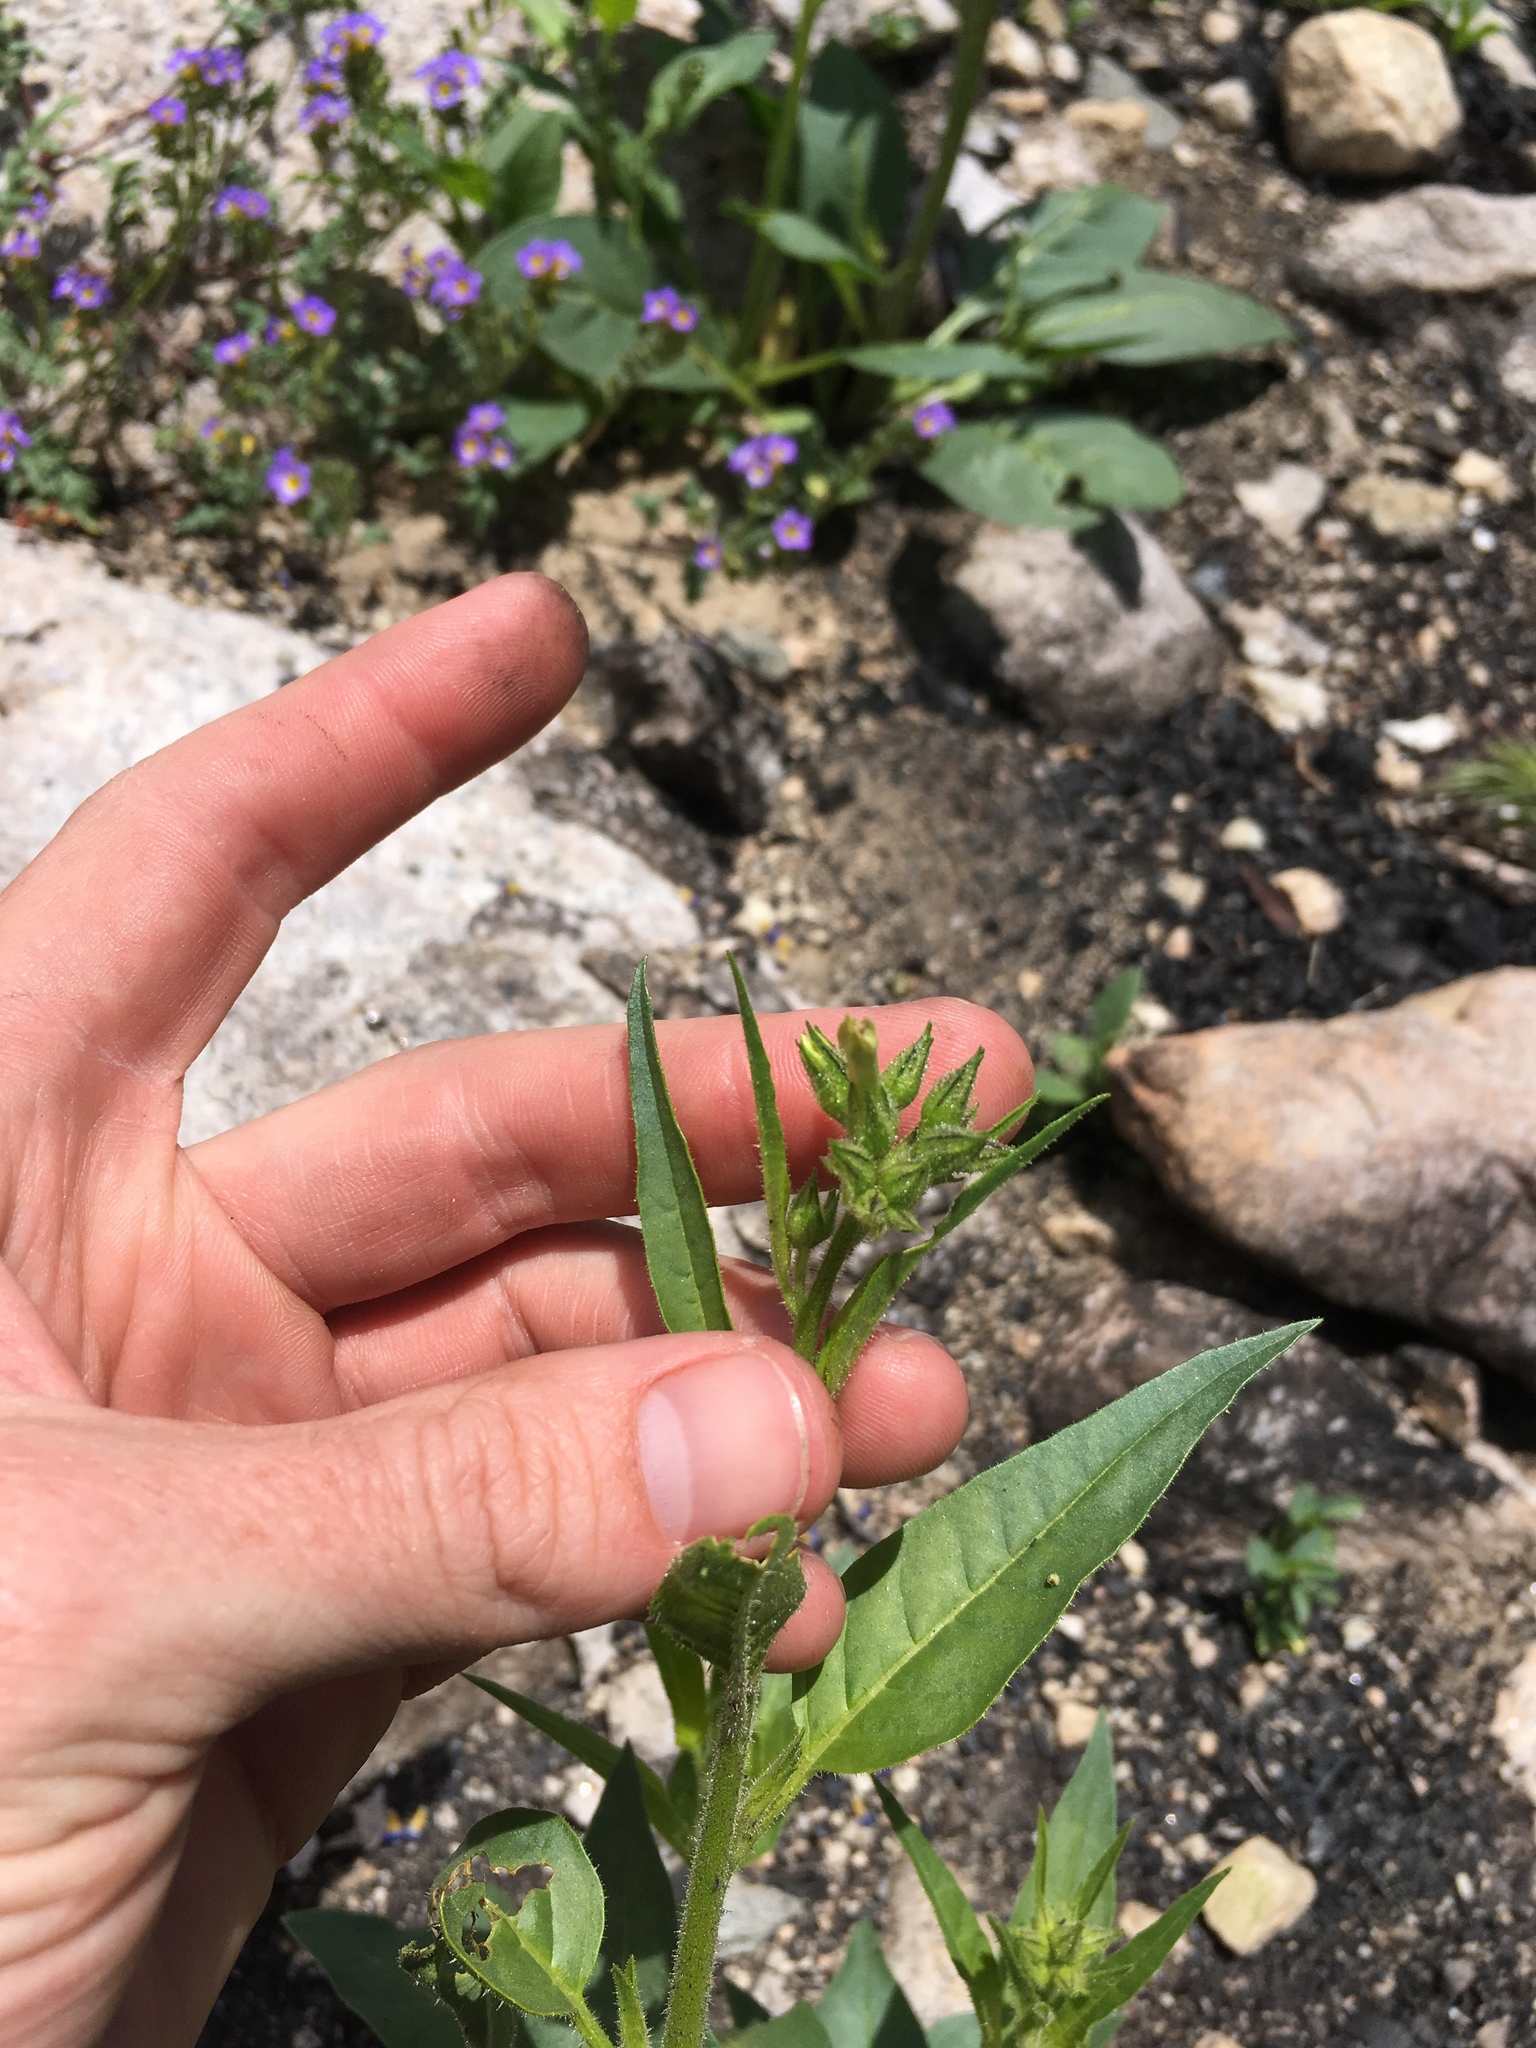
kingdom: Plantae
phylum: Tracheophyta
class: Magnoliopsida
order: Solanales
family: Solanaceae
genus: Nicotiana
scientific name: Nicotiana attenuata
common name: Coyote tobacco
